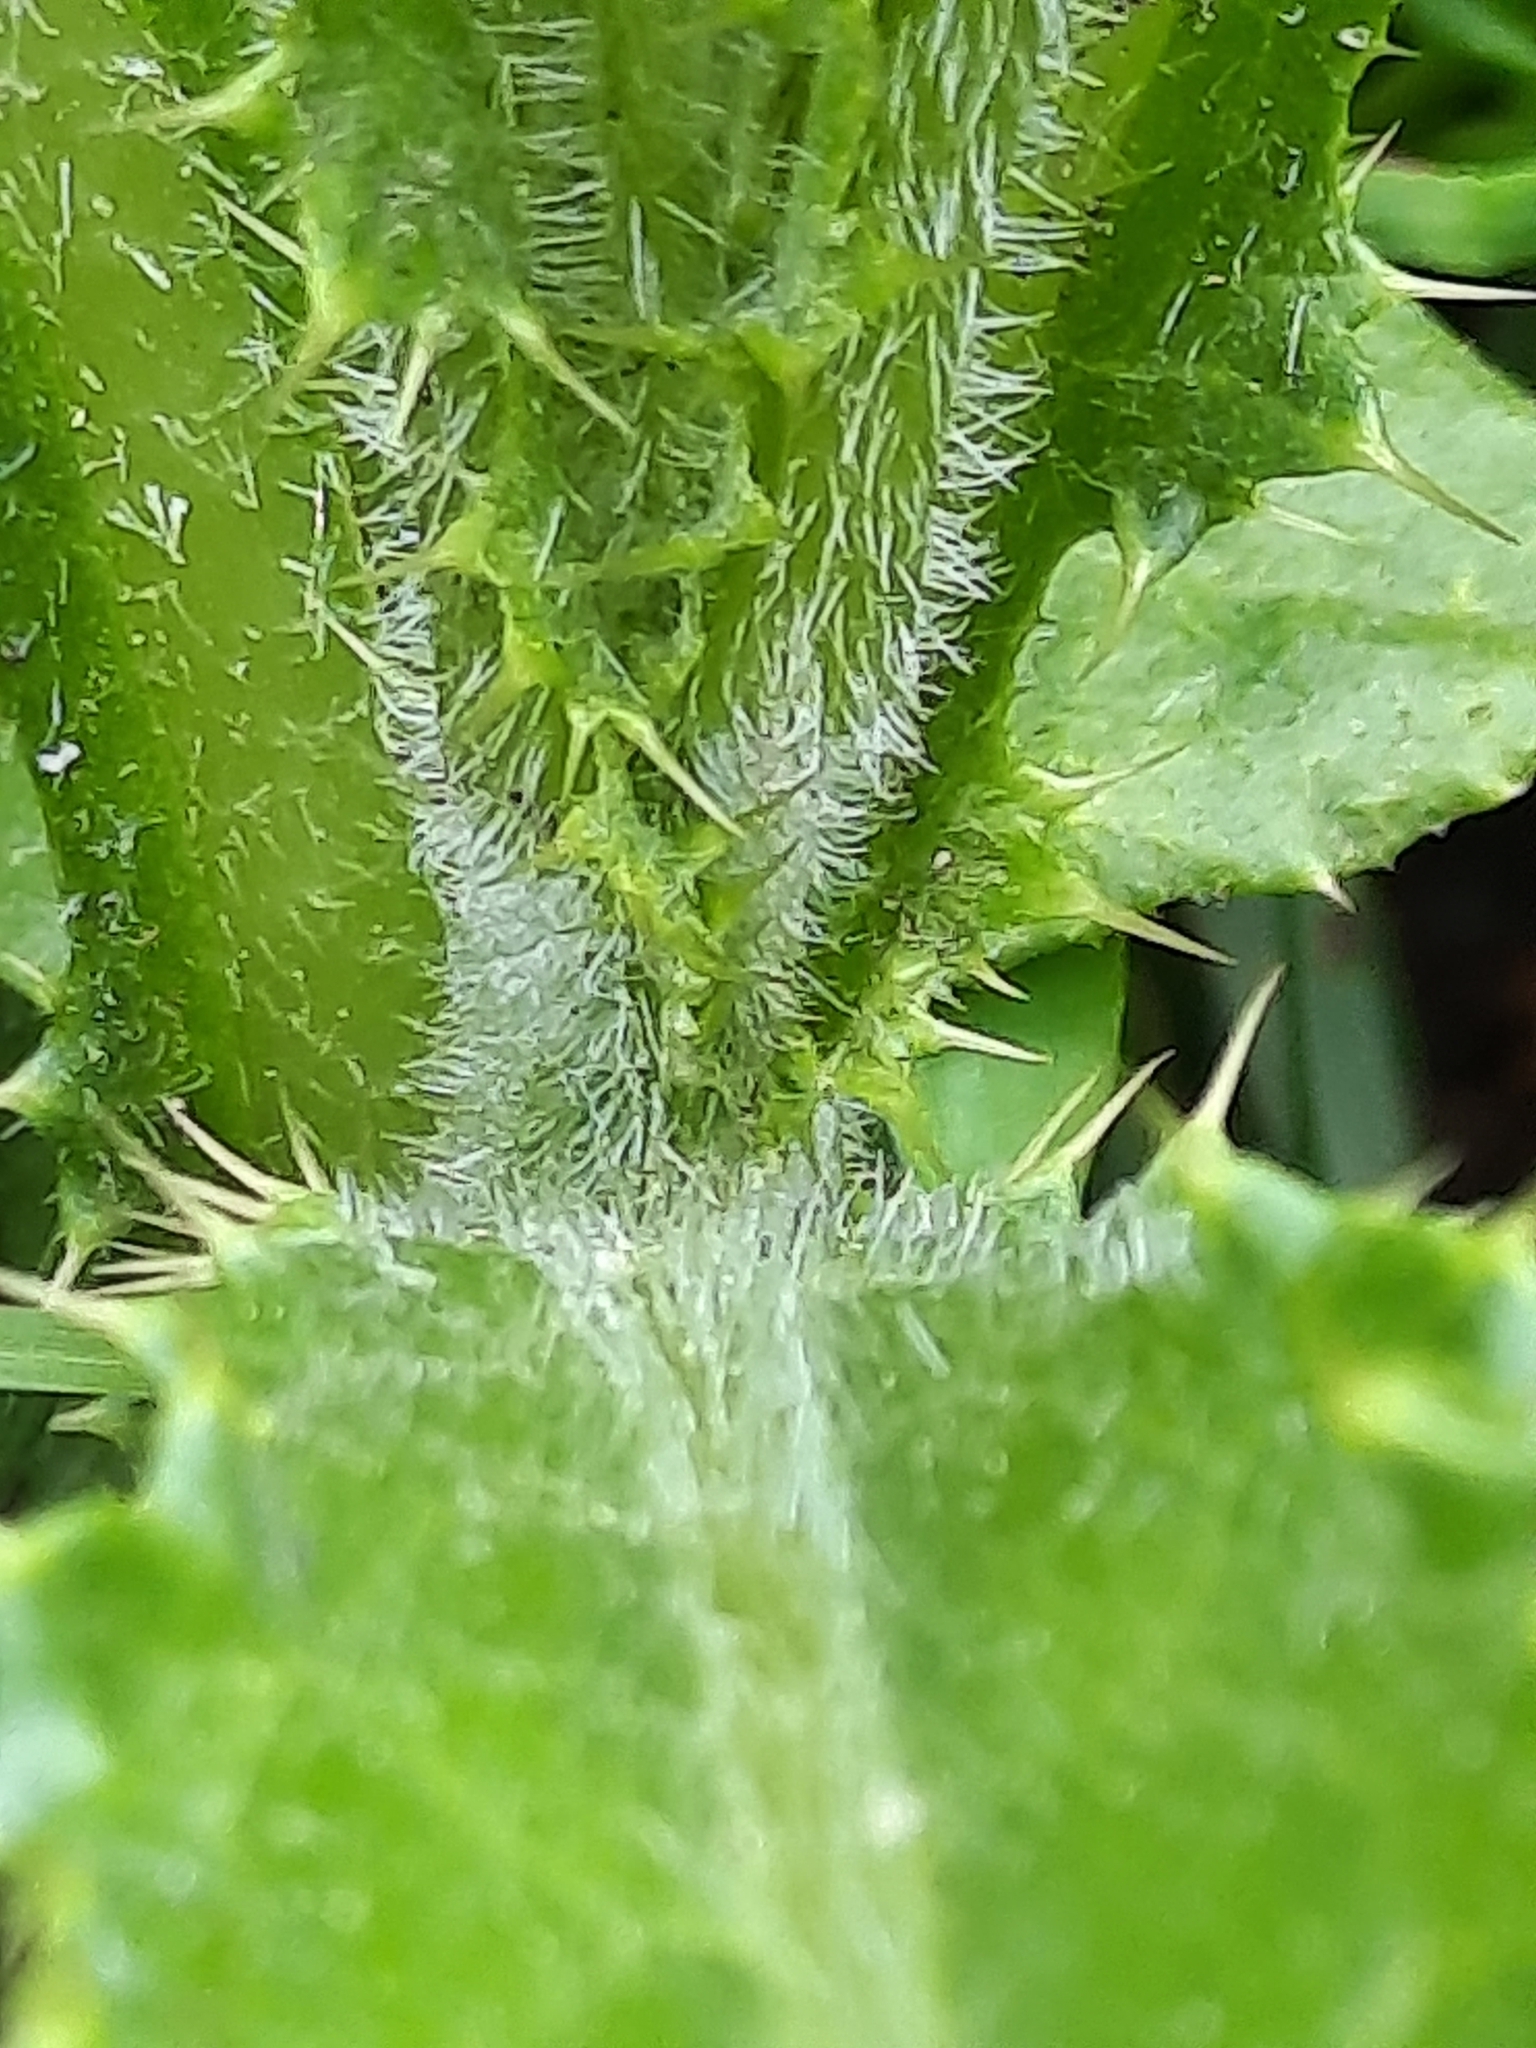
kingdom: Plantae
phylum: Tracheophyta
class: Magnoliopsida
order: Asterales
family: Asteraceae
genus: Cirsium
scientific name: Cirsium arvense
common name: Creeping thistle
